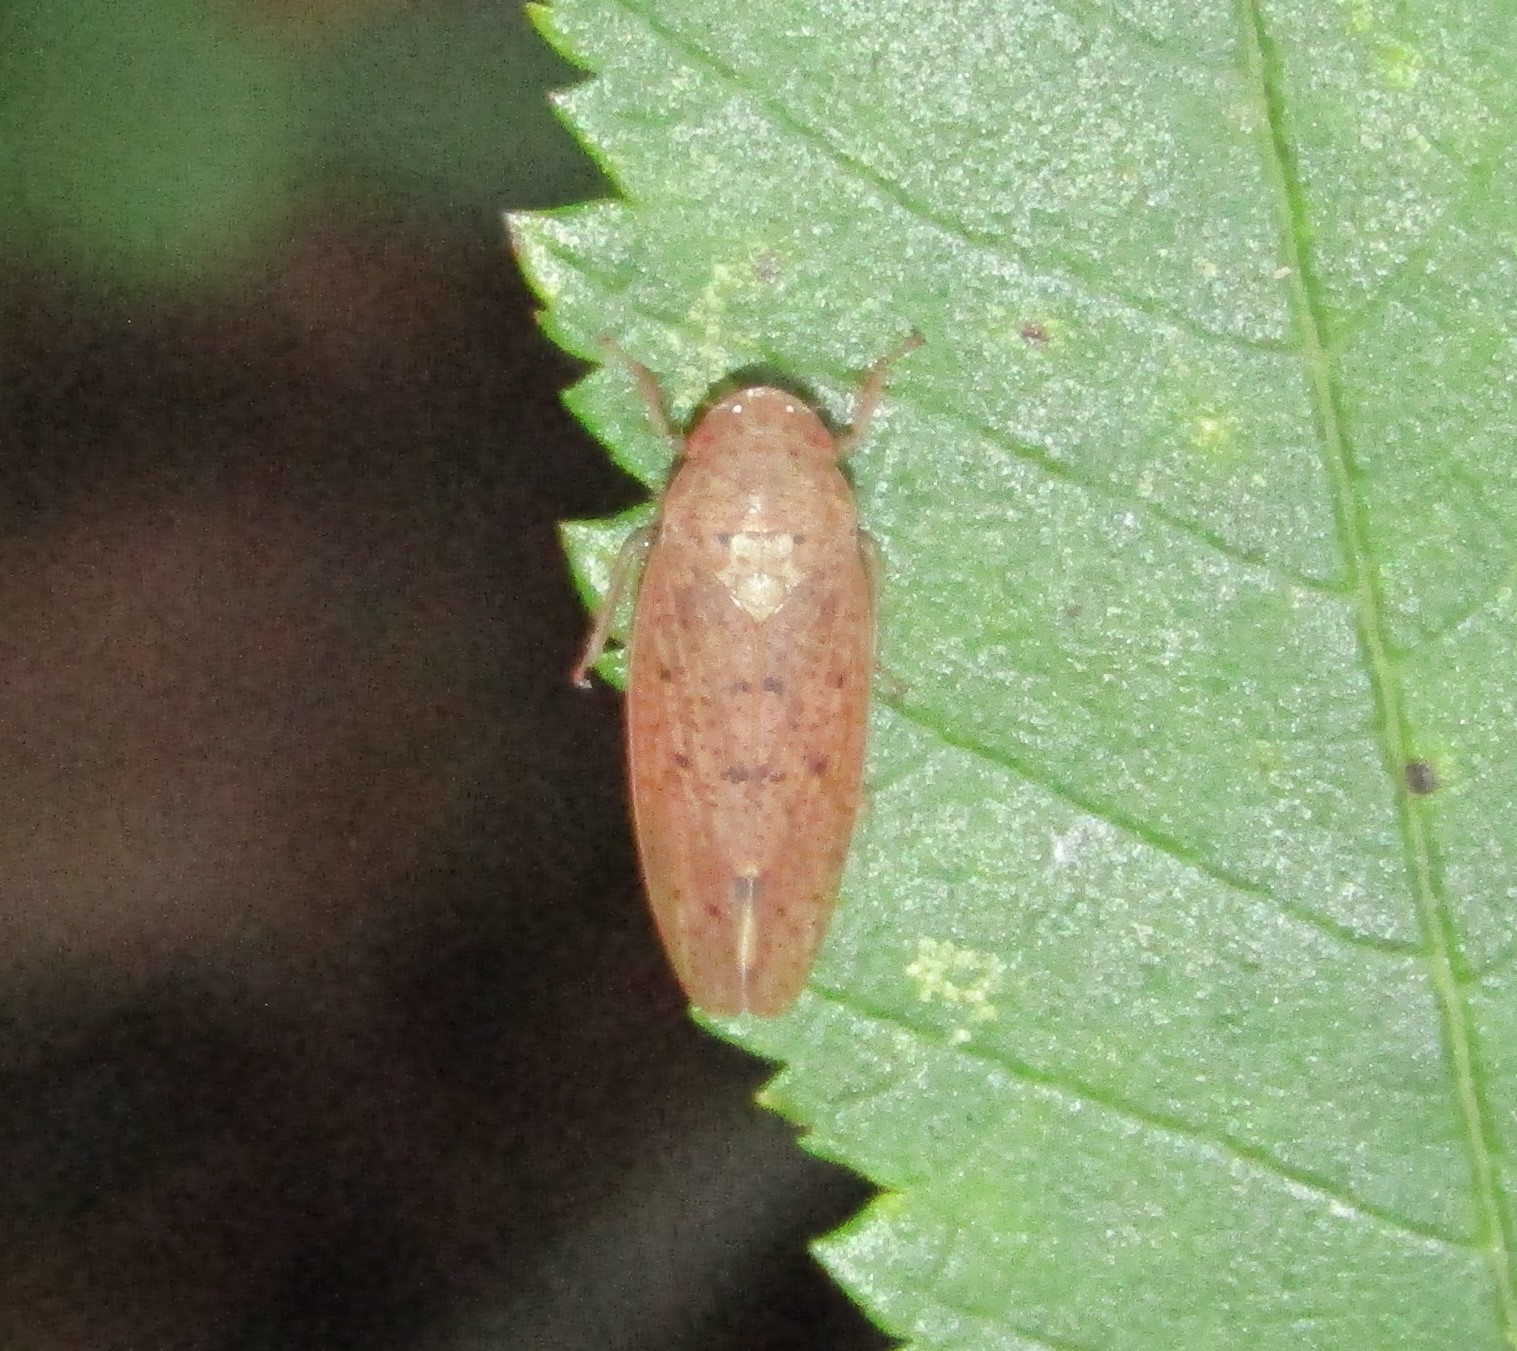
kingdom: Animalia
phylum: Arthropoda
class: Insecta
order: Hemiptera
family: Cicadellidae
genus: Ponana
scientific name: Ponana puncticollis
